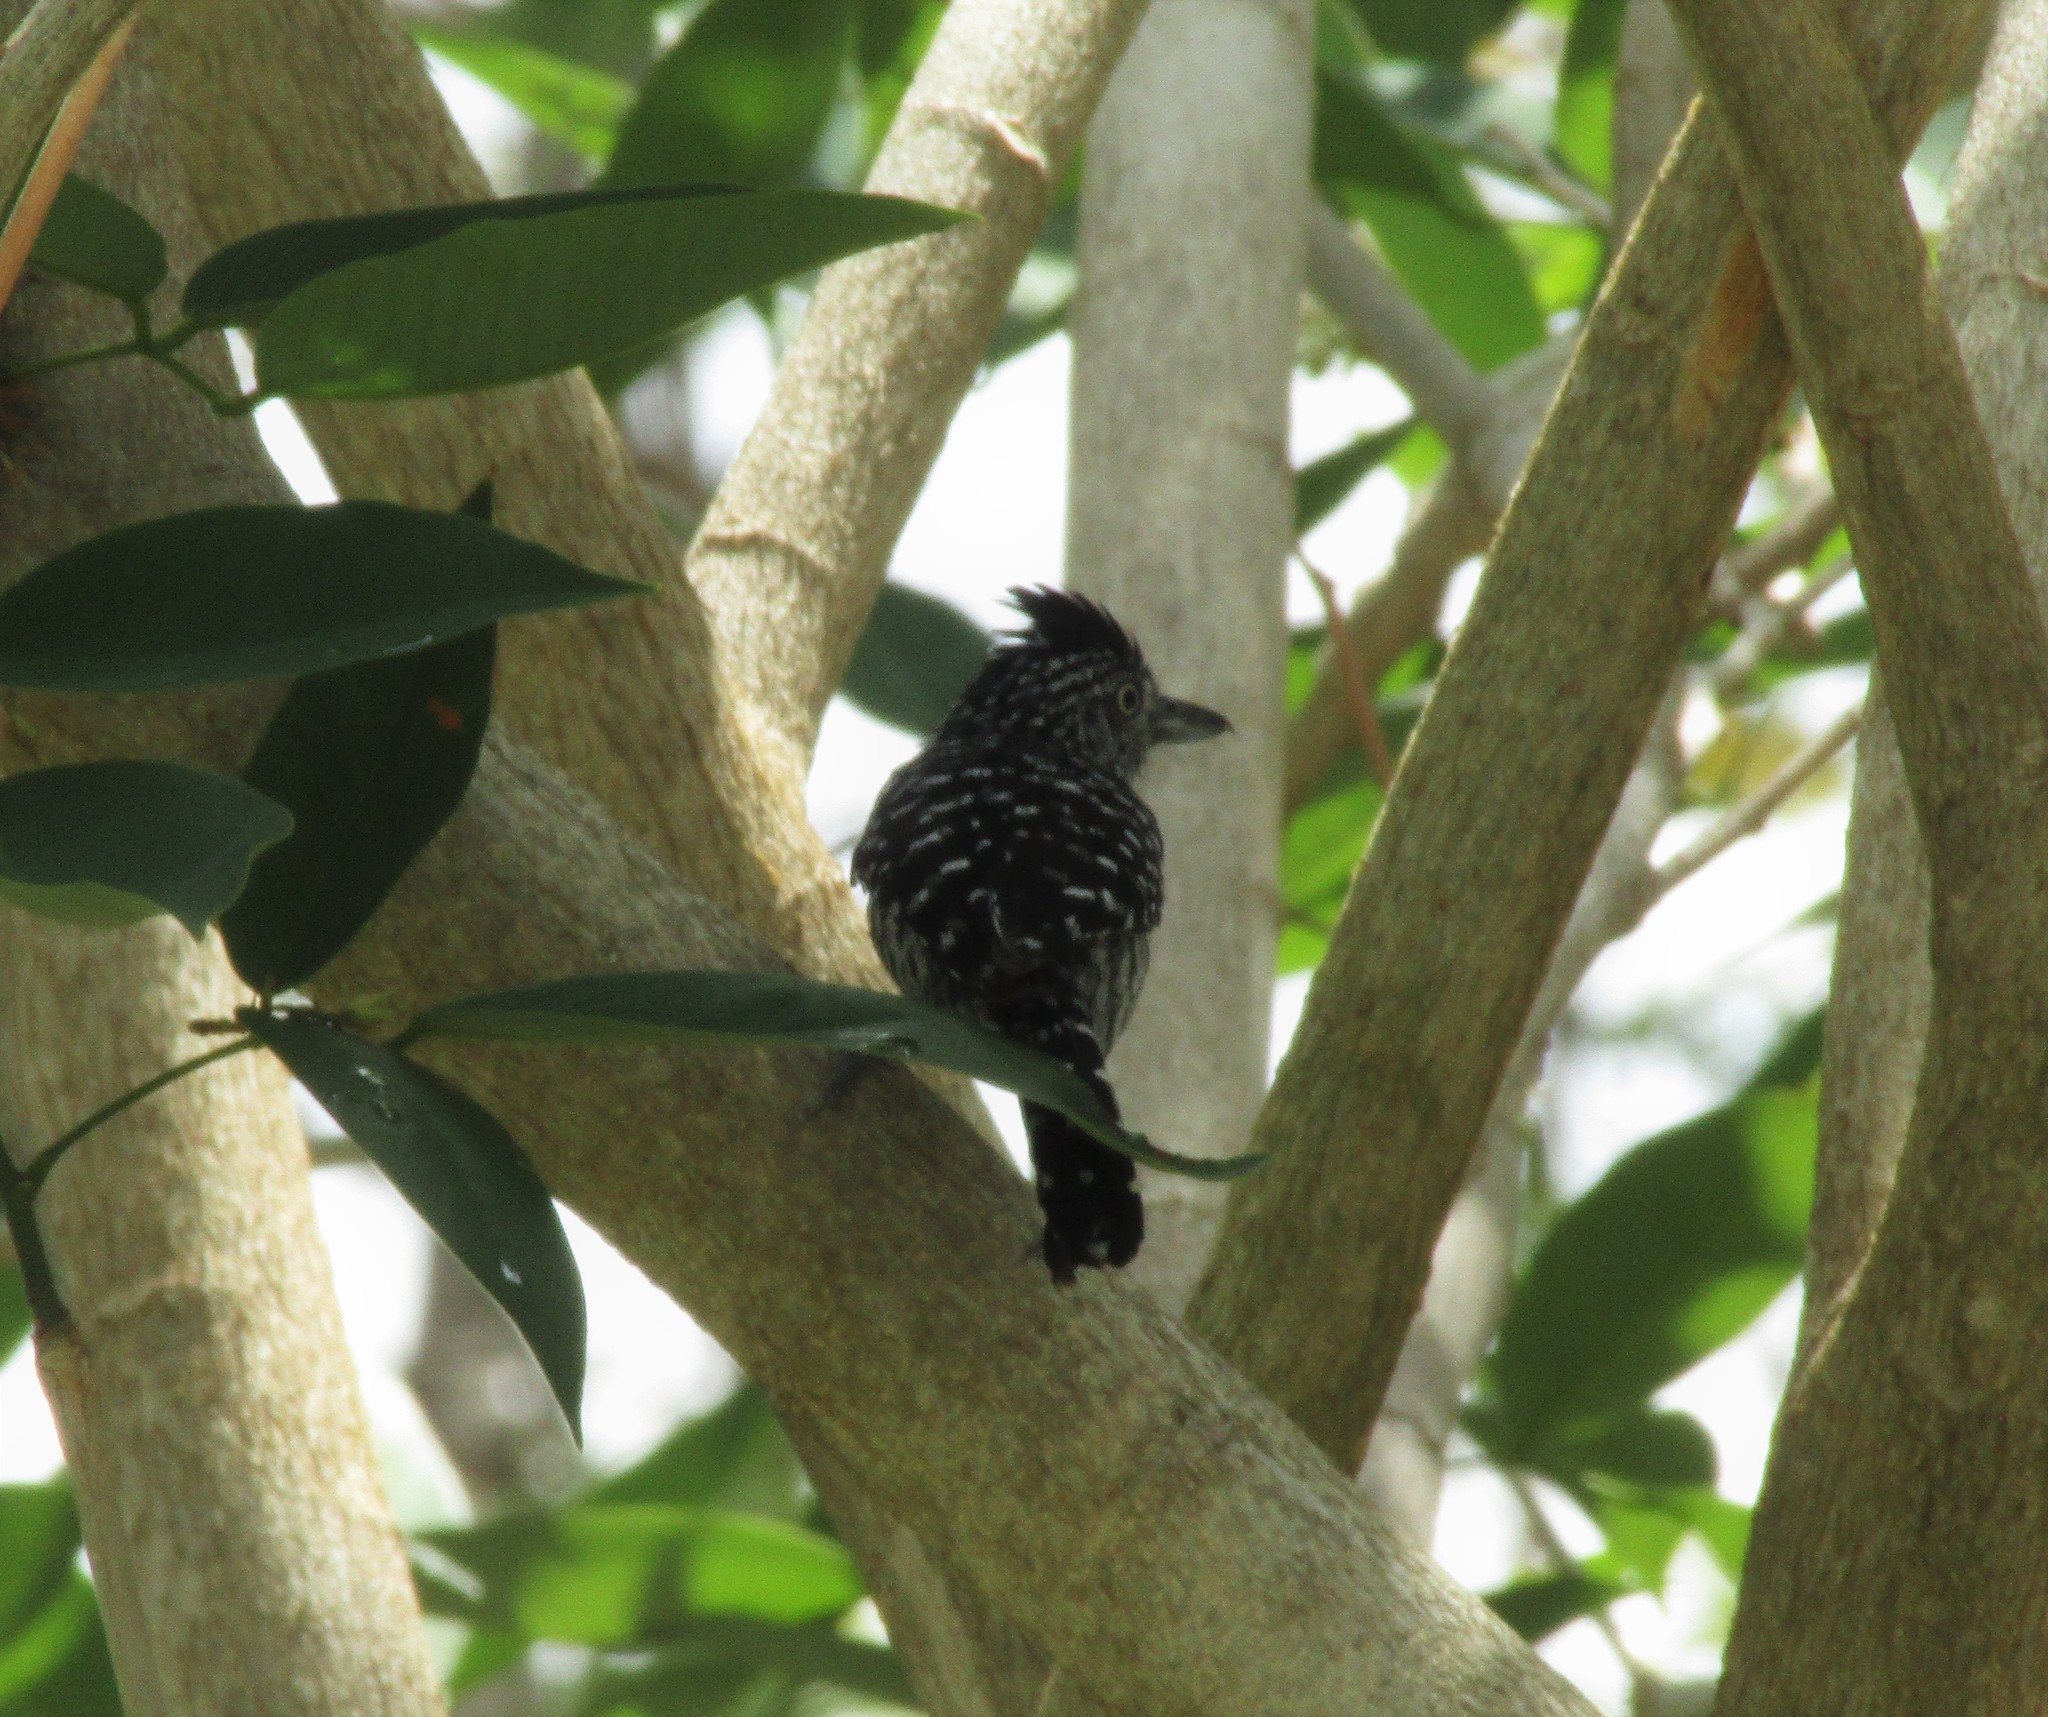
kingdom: Animalia
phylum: Chordata
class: Aves
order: Passeriformes
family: Thamnophilidae
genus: Thamnophilus
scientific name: Thamnophilus doliatus
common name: Barred antshrike
